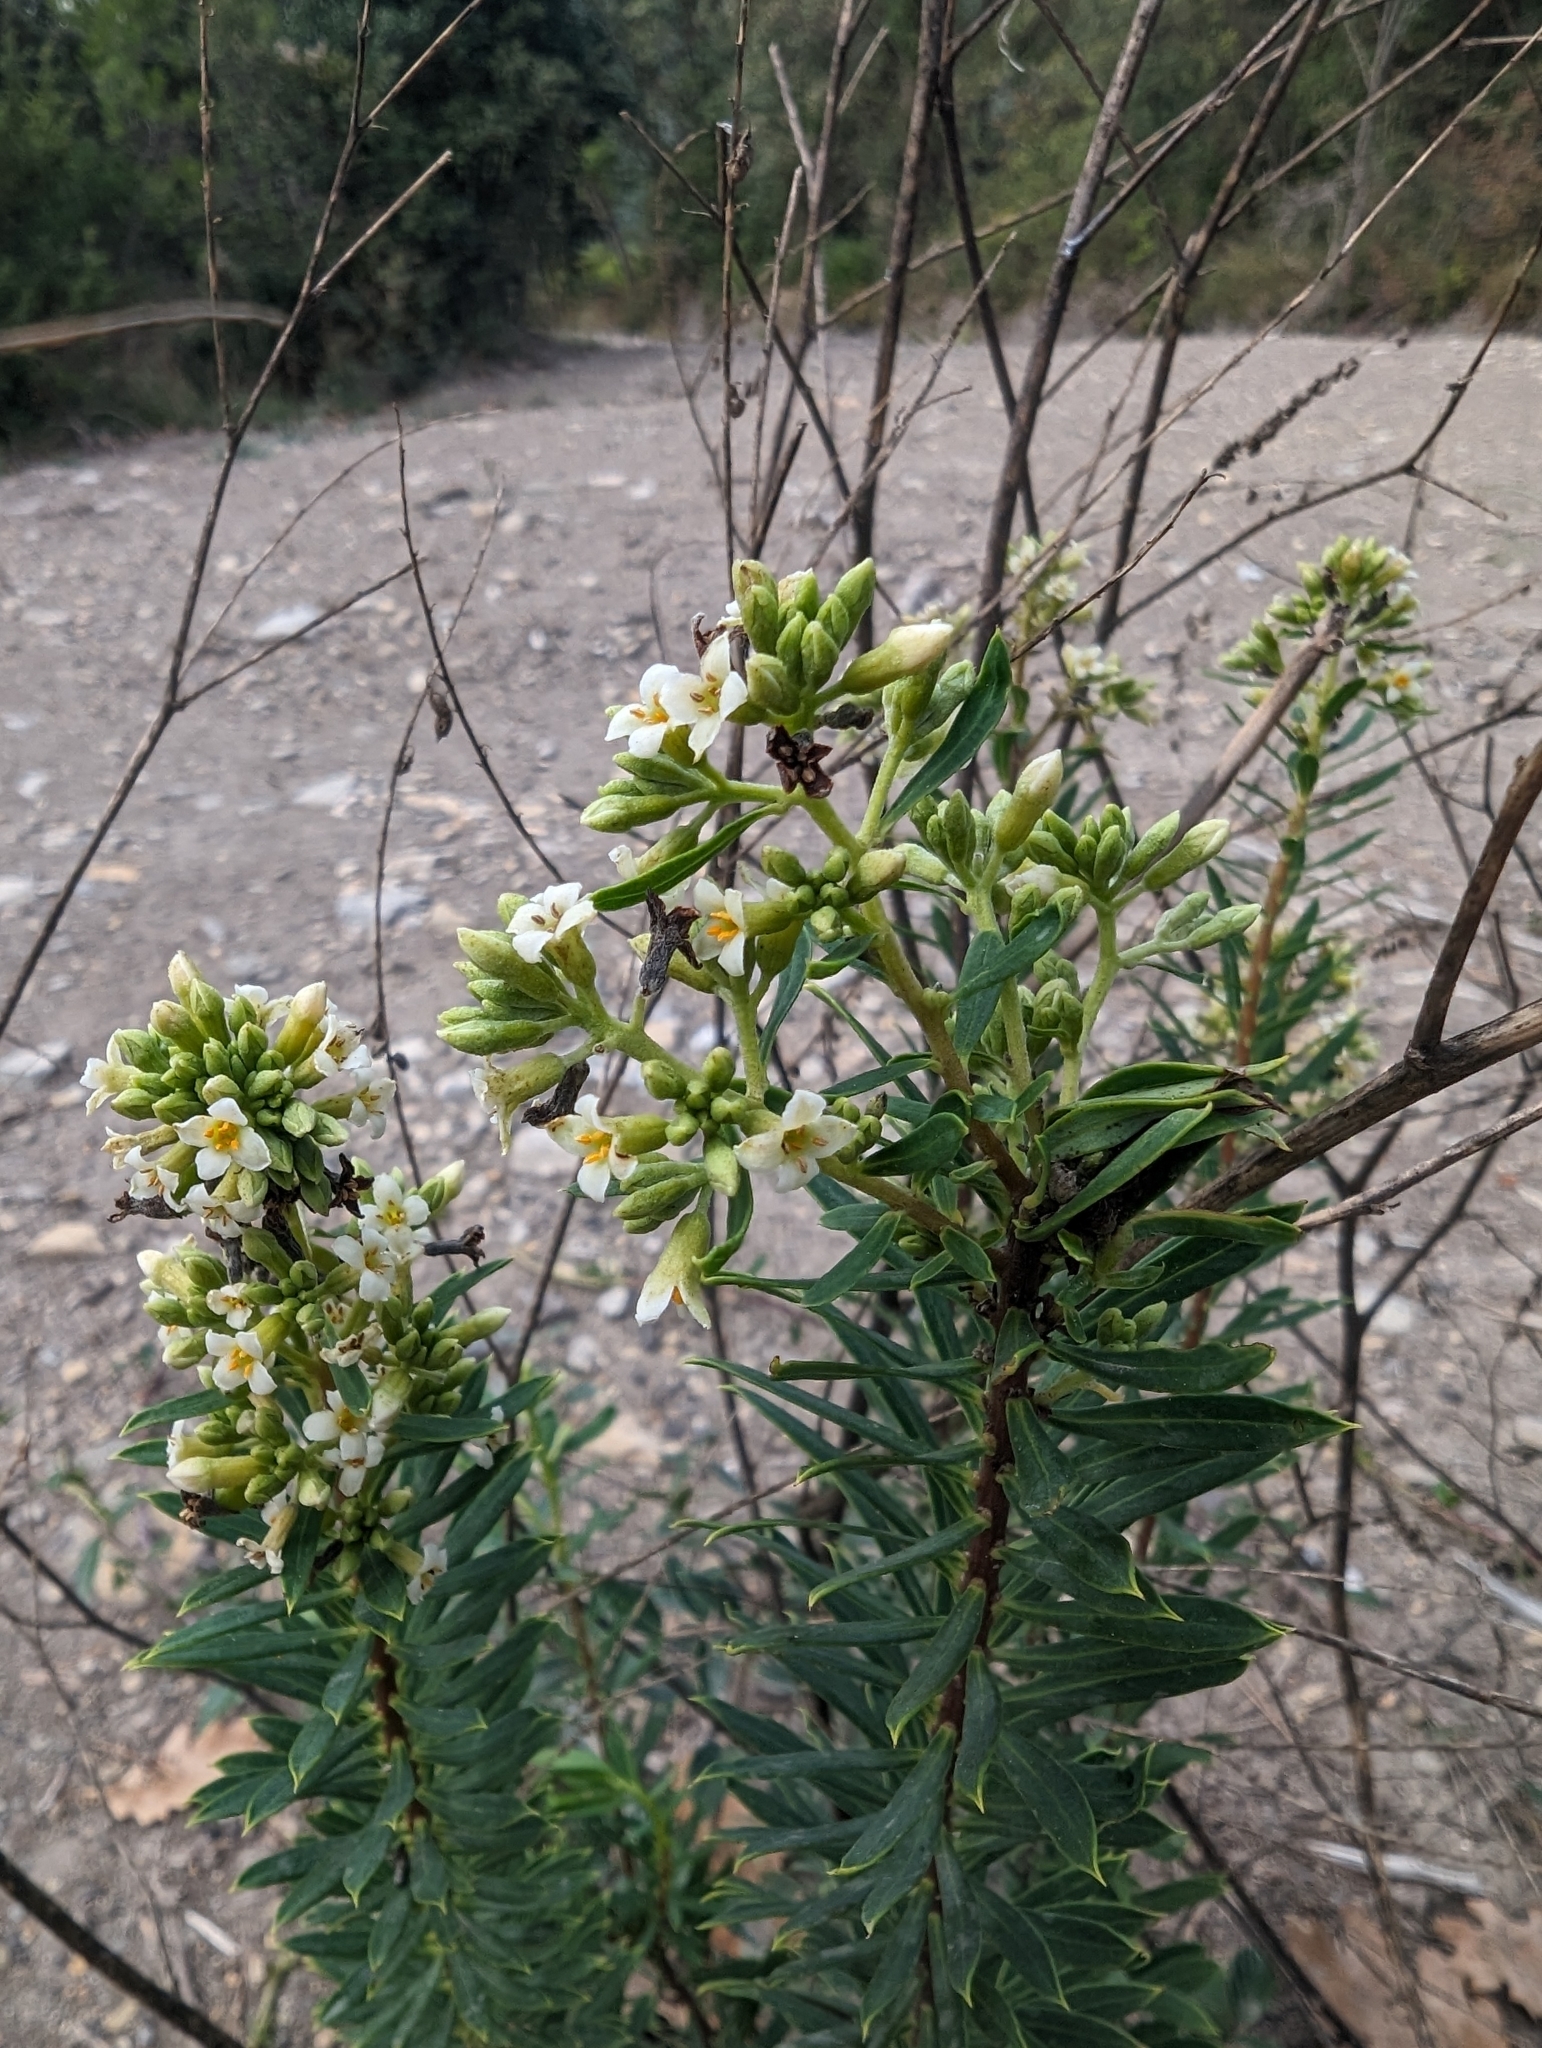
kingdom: Plantae
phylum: Tracheophyta
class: Magnoliopsida
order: Malvales
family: Thymelaeaceae
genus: Daphne
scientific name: Daphne gnidium
